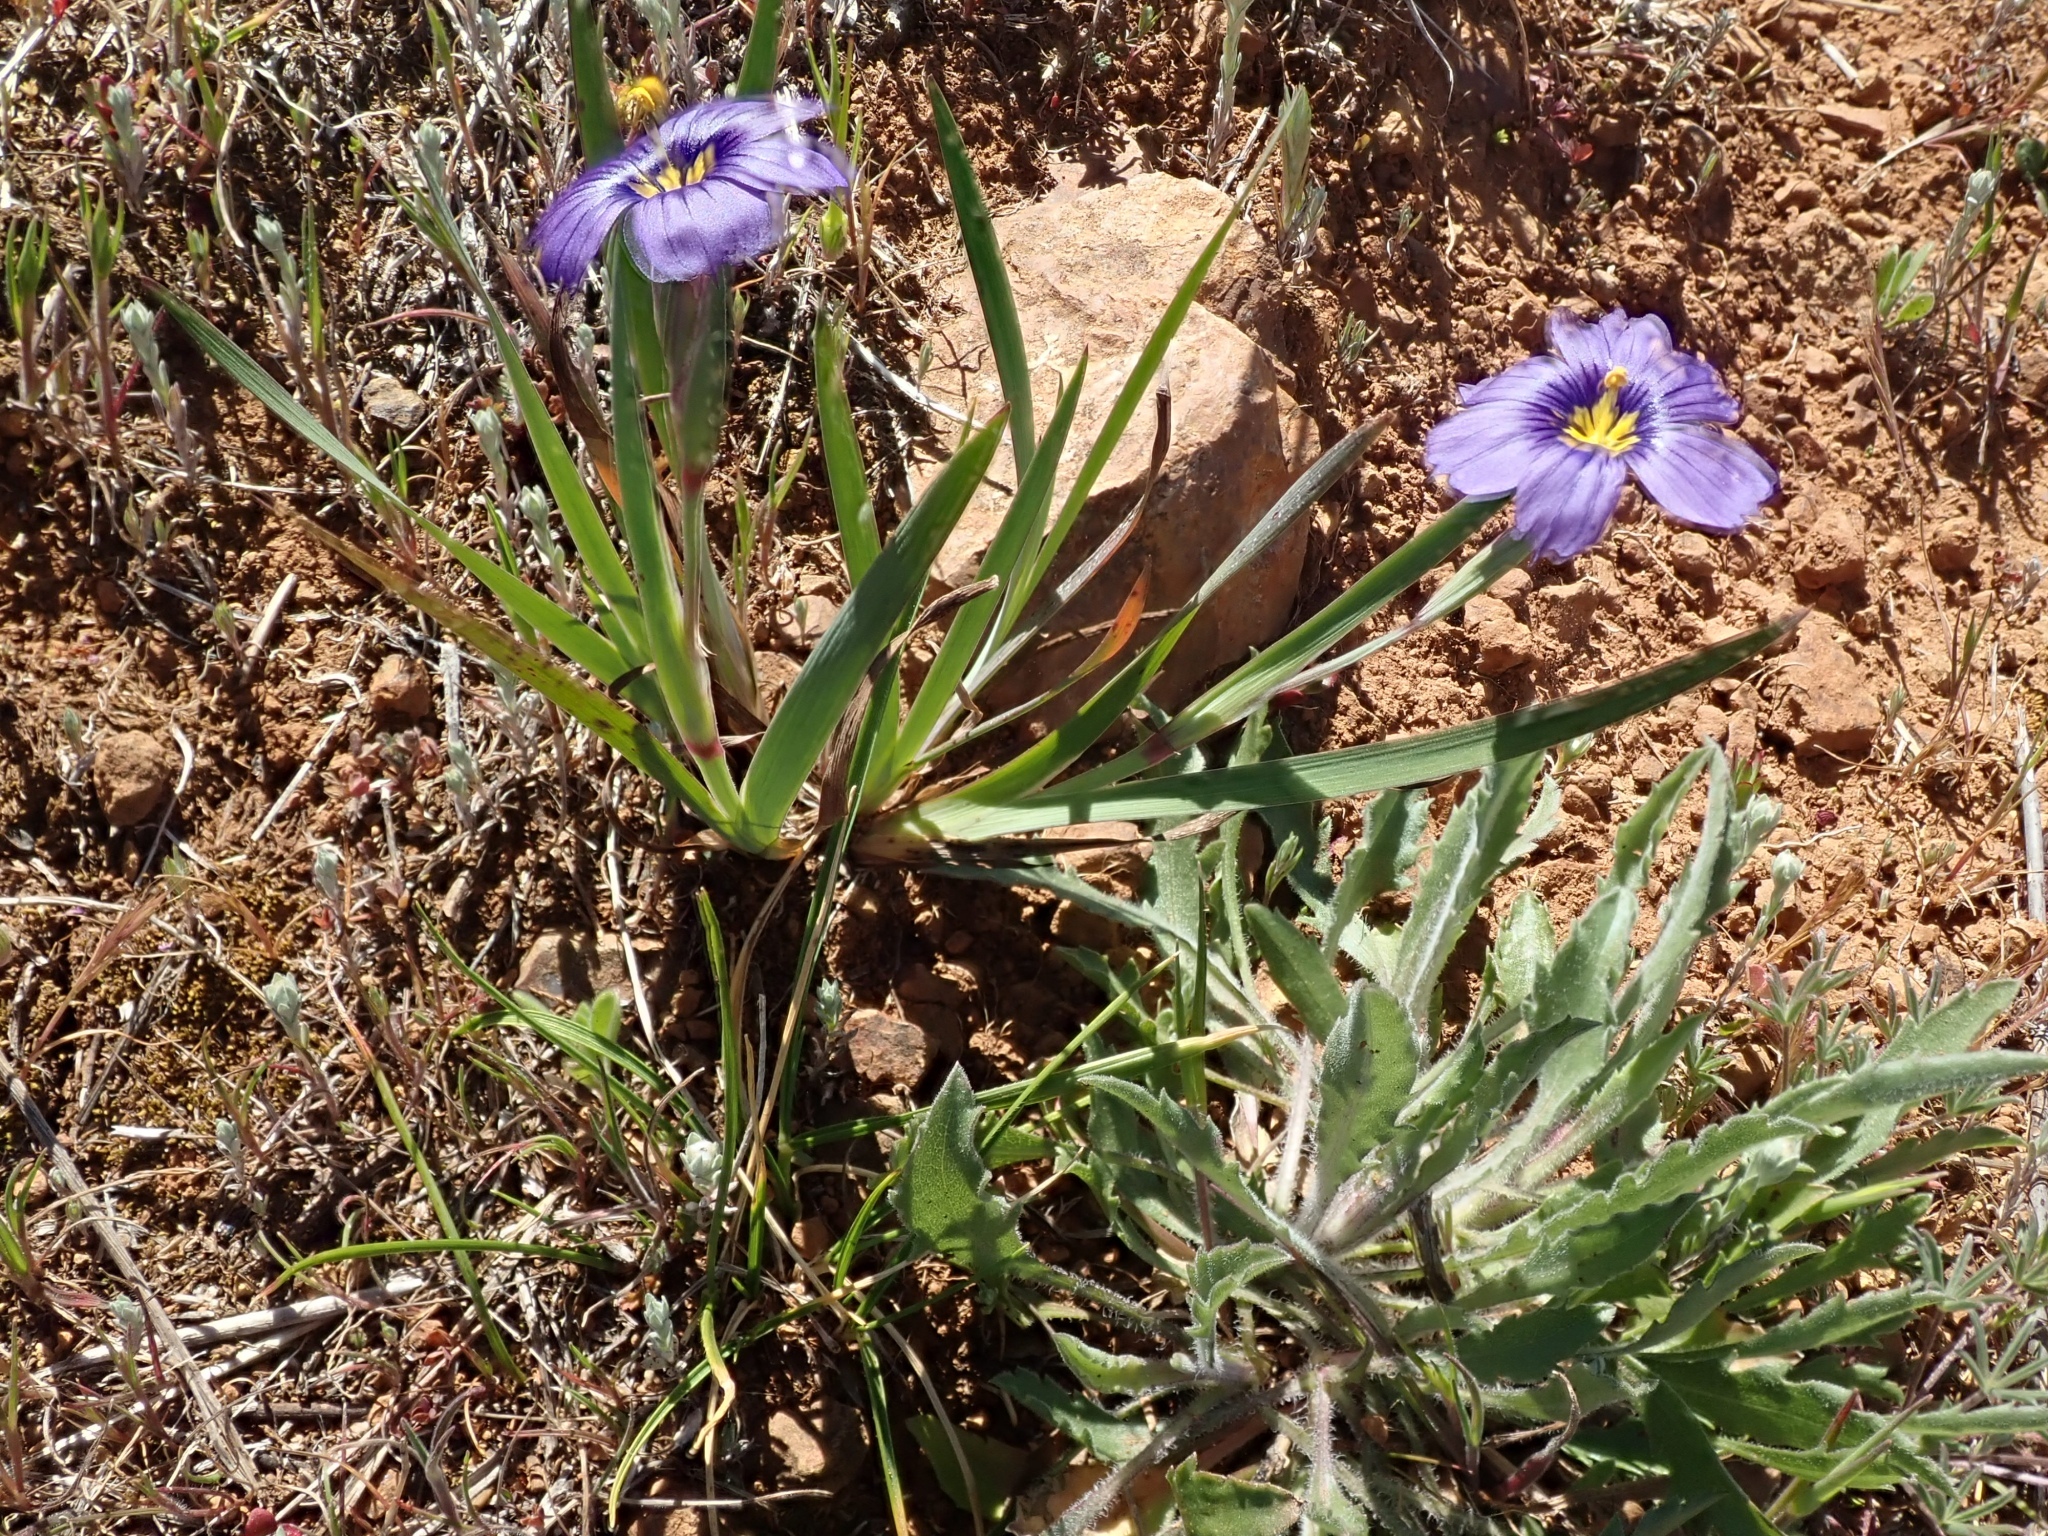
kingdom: Plantae
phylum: Tracheophyta
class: Liliopsida
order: Asparagales
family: Iridaceae
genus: Sisyrinchium
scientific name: Sisyrinchium bellum
